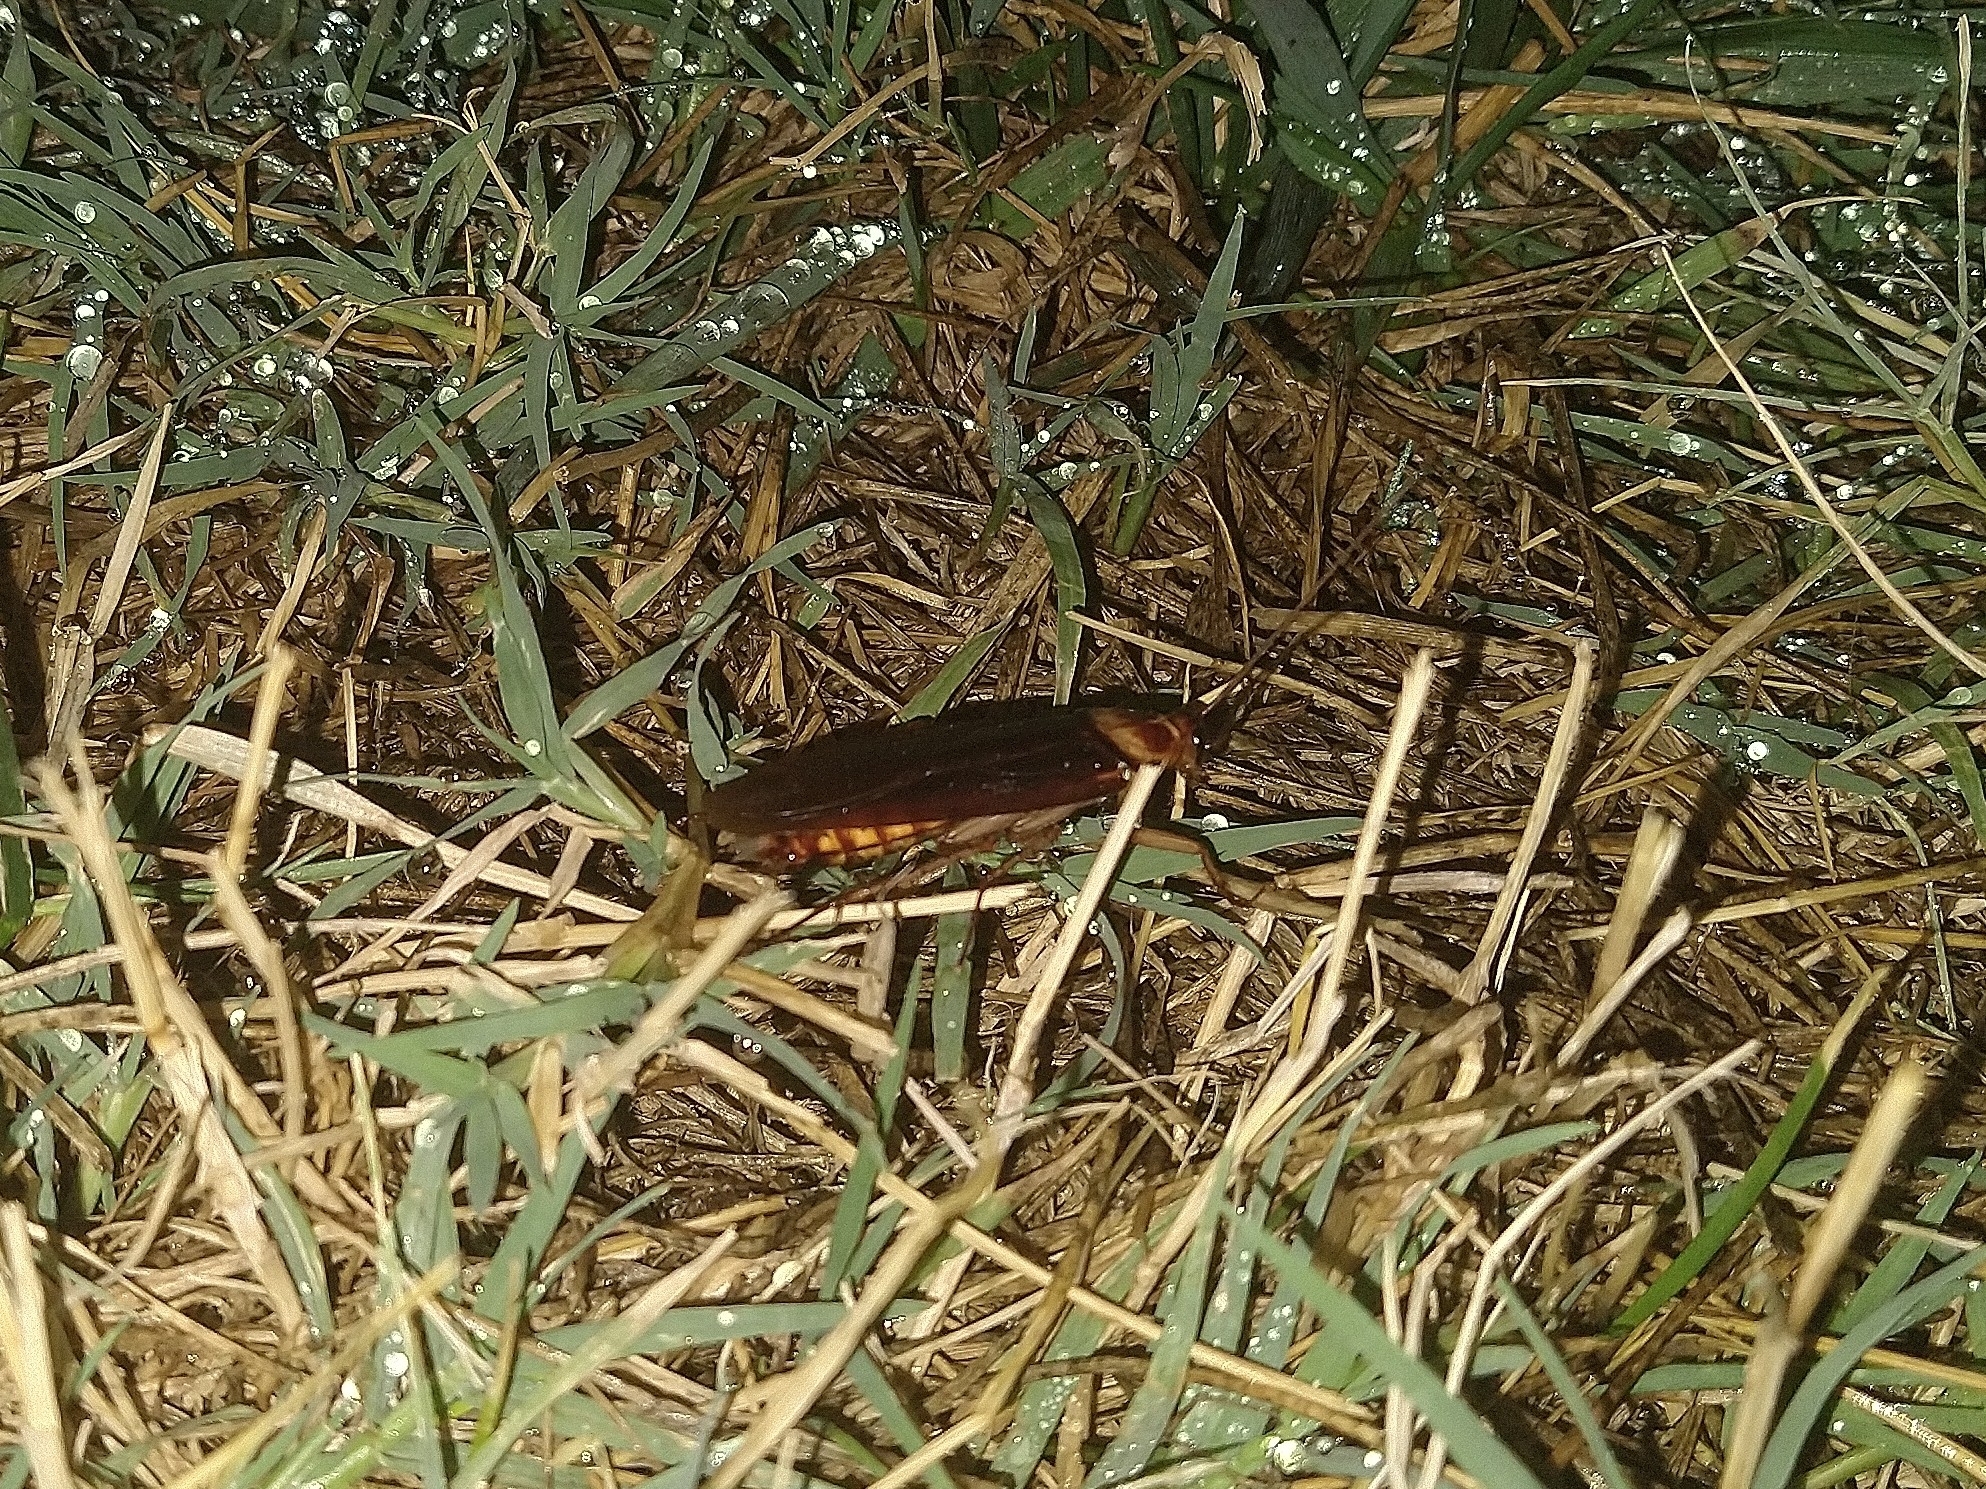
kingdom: Animalia
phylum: Arthropoda
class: Insecta
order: Blattodea
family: Blattidae
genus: Periplaneta
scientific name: Periplaneta americana
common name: American cockroach
